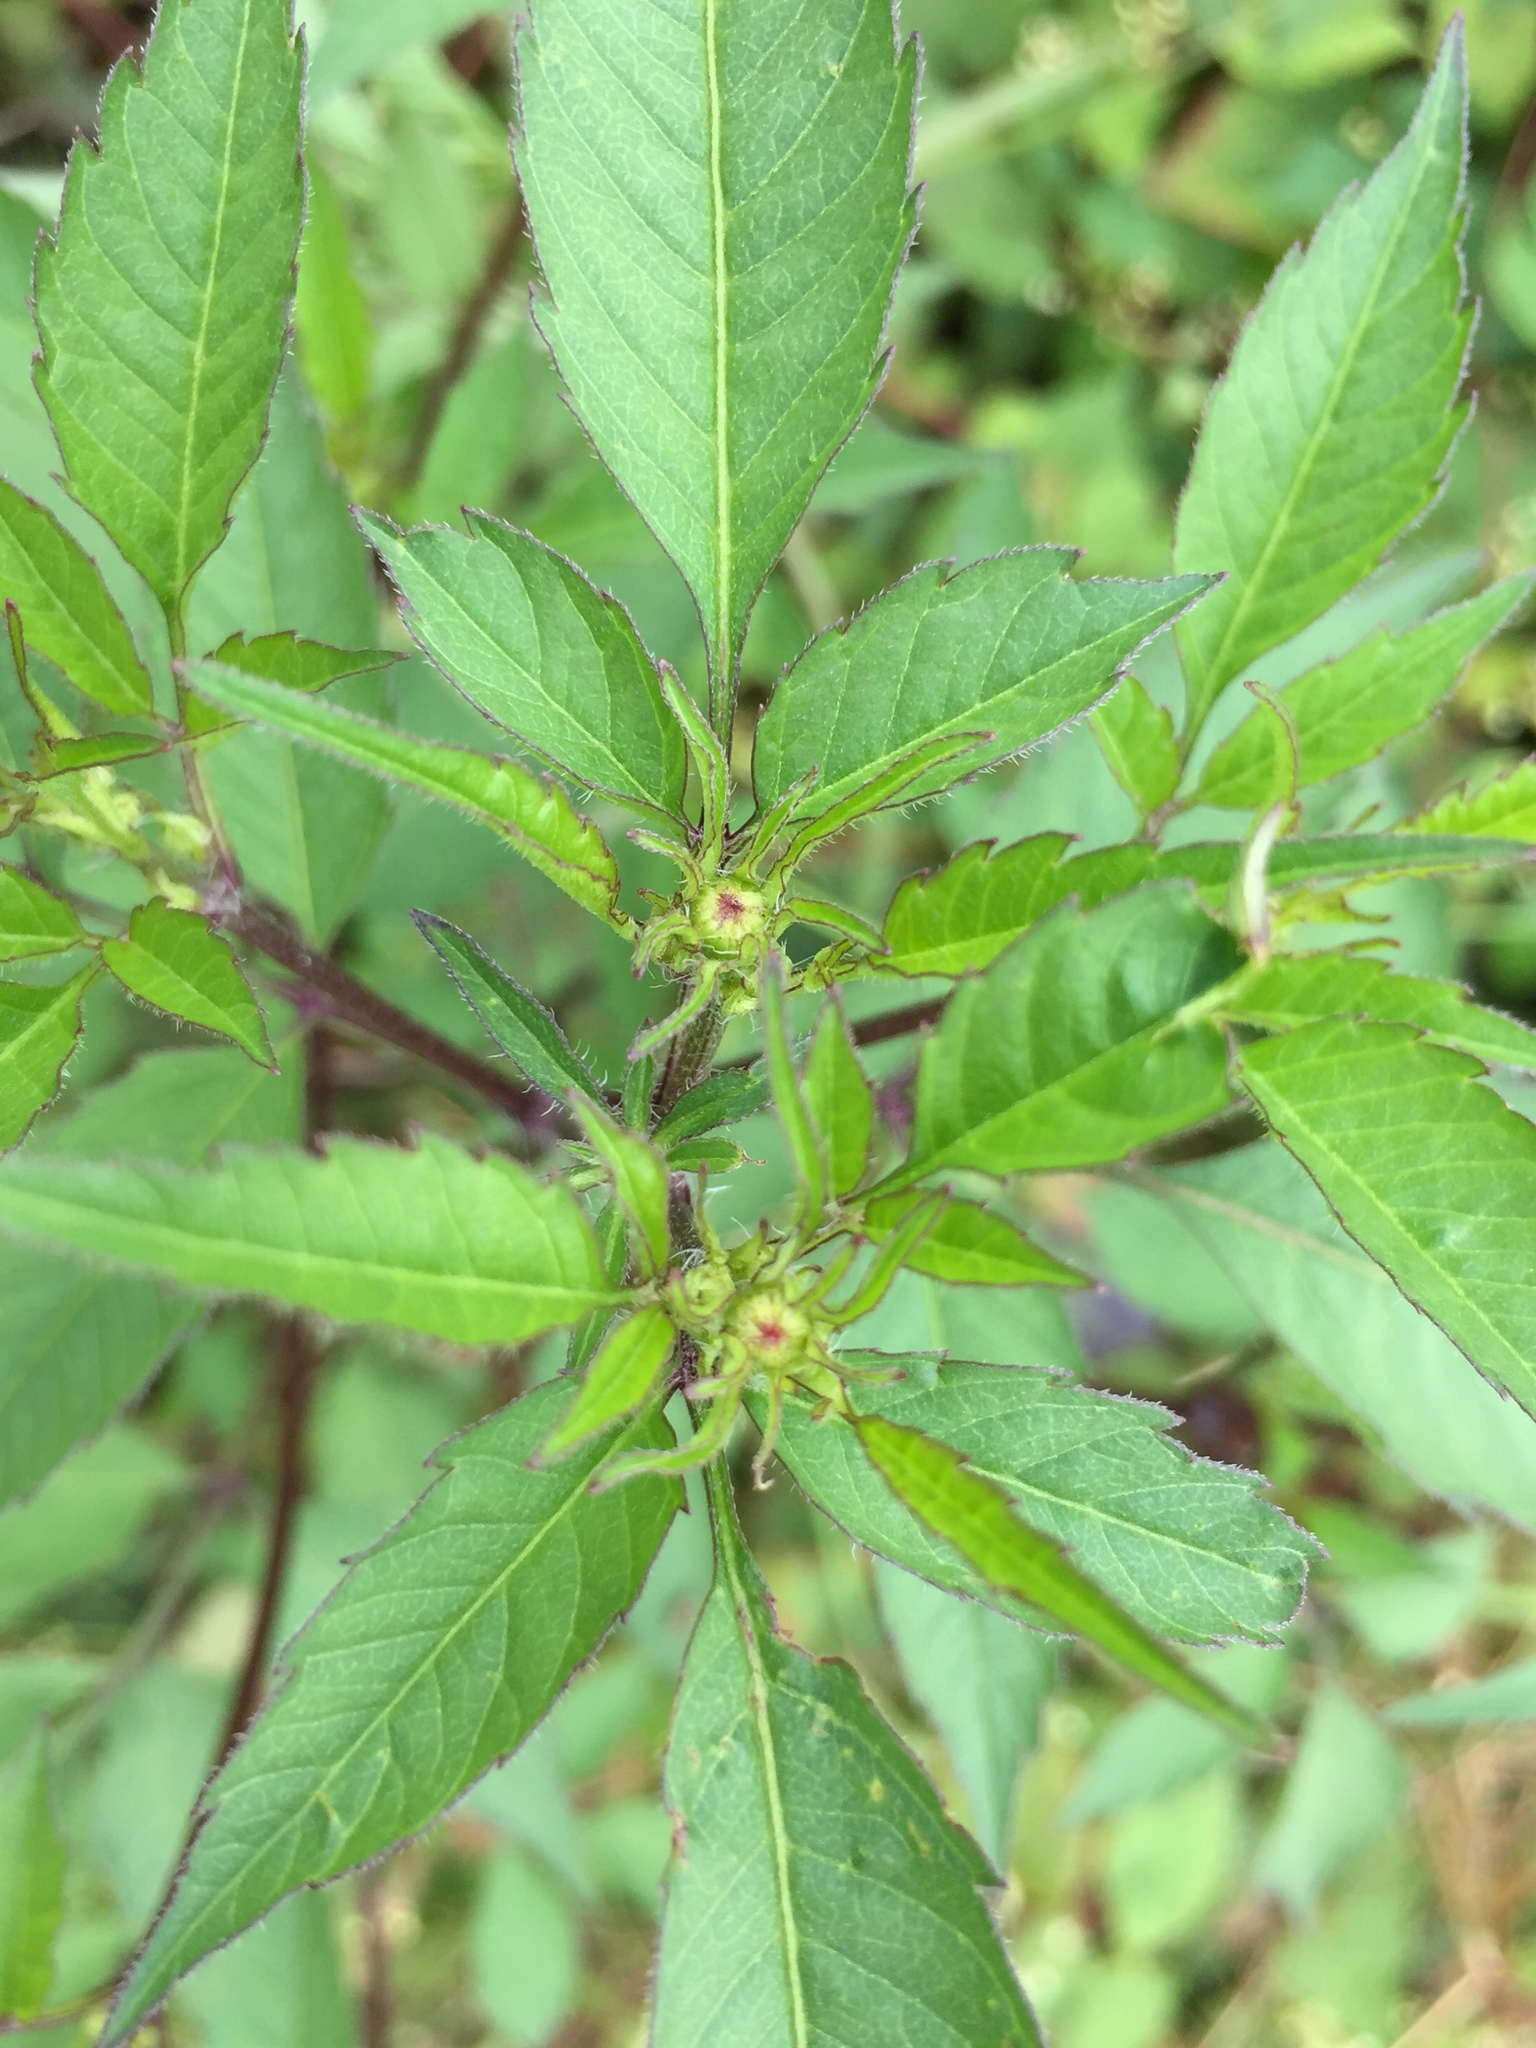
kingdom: Plantae
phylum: Tracheophyta
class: Magnoliopsida
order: Asterales
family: Asteraceae
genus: Bidens
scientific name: Bidens frondosa
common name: Beggarticks
